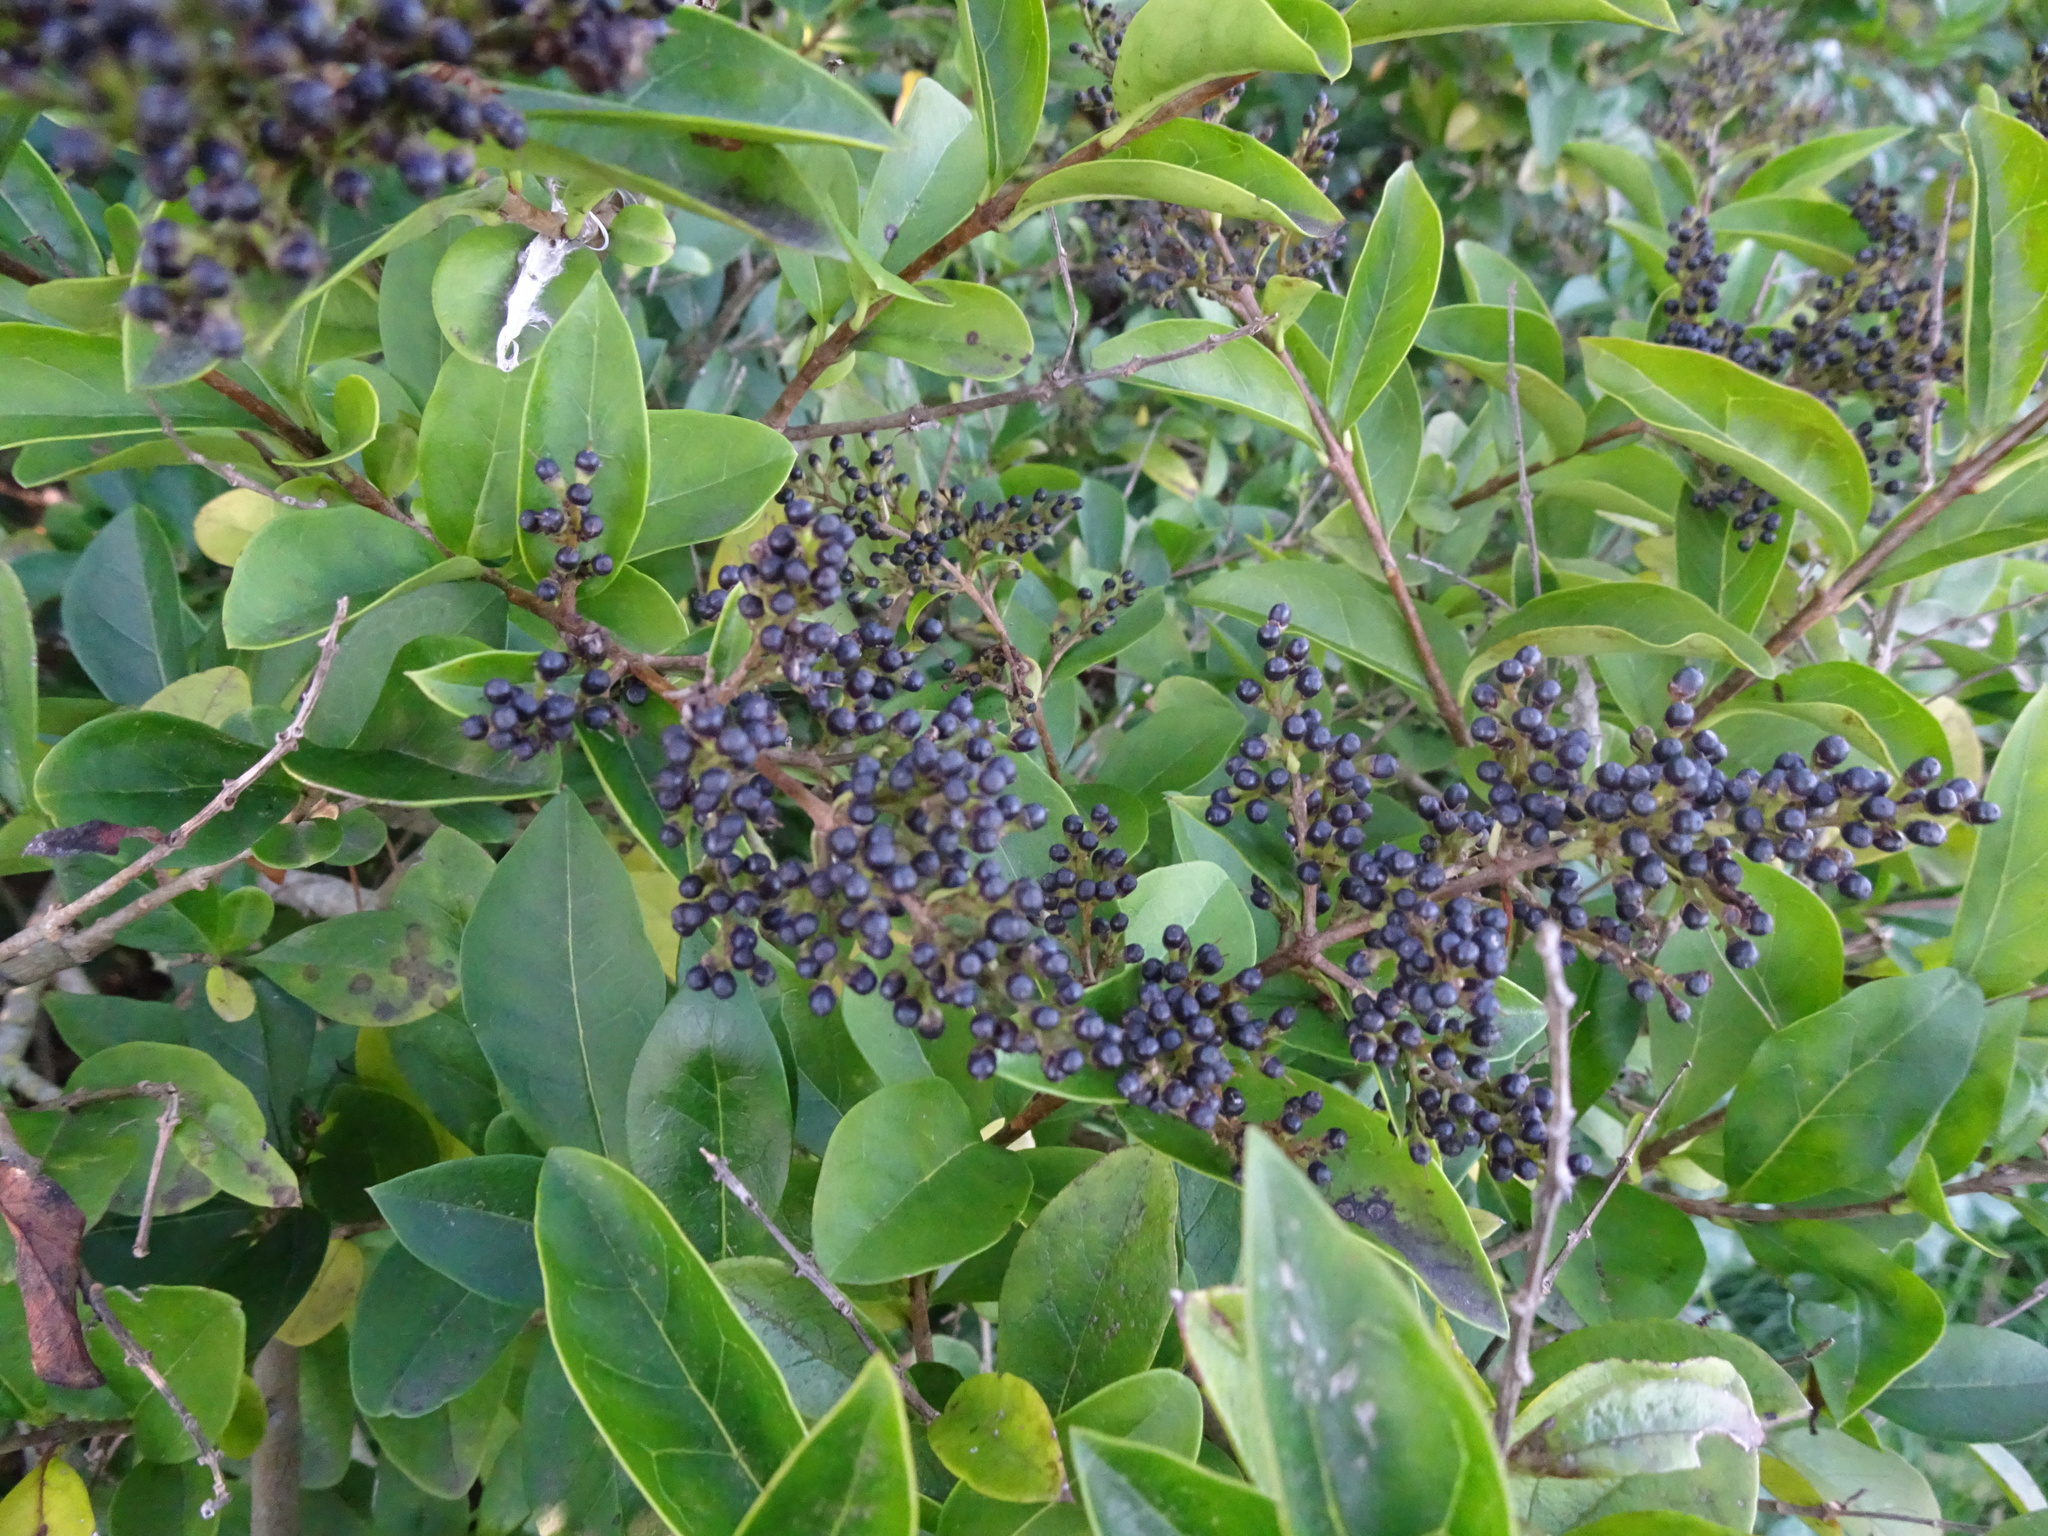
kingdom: Plantae
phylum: Tracheophyta
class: Magnoliopsida
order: Lamiales
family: Oleaceae
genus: Ligustrum
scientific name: Ligustrum ovalifolium
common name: California privet
